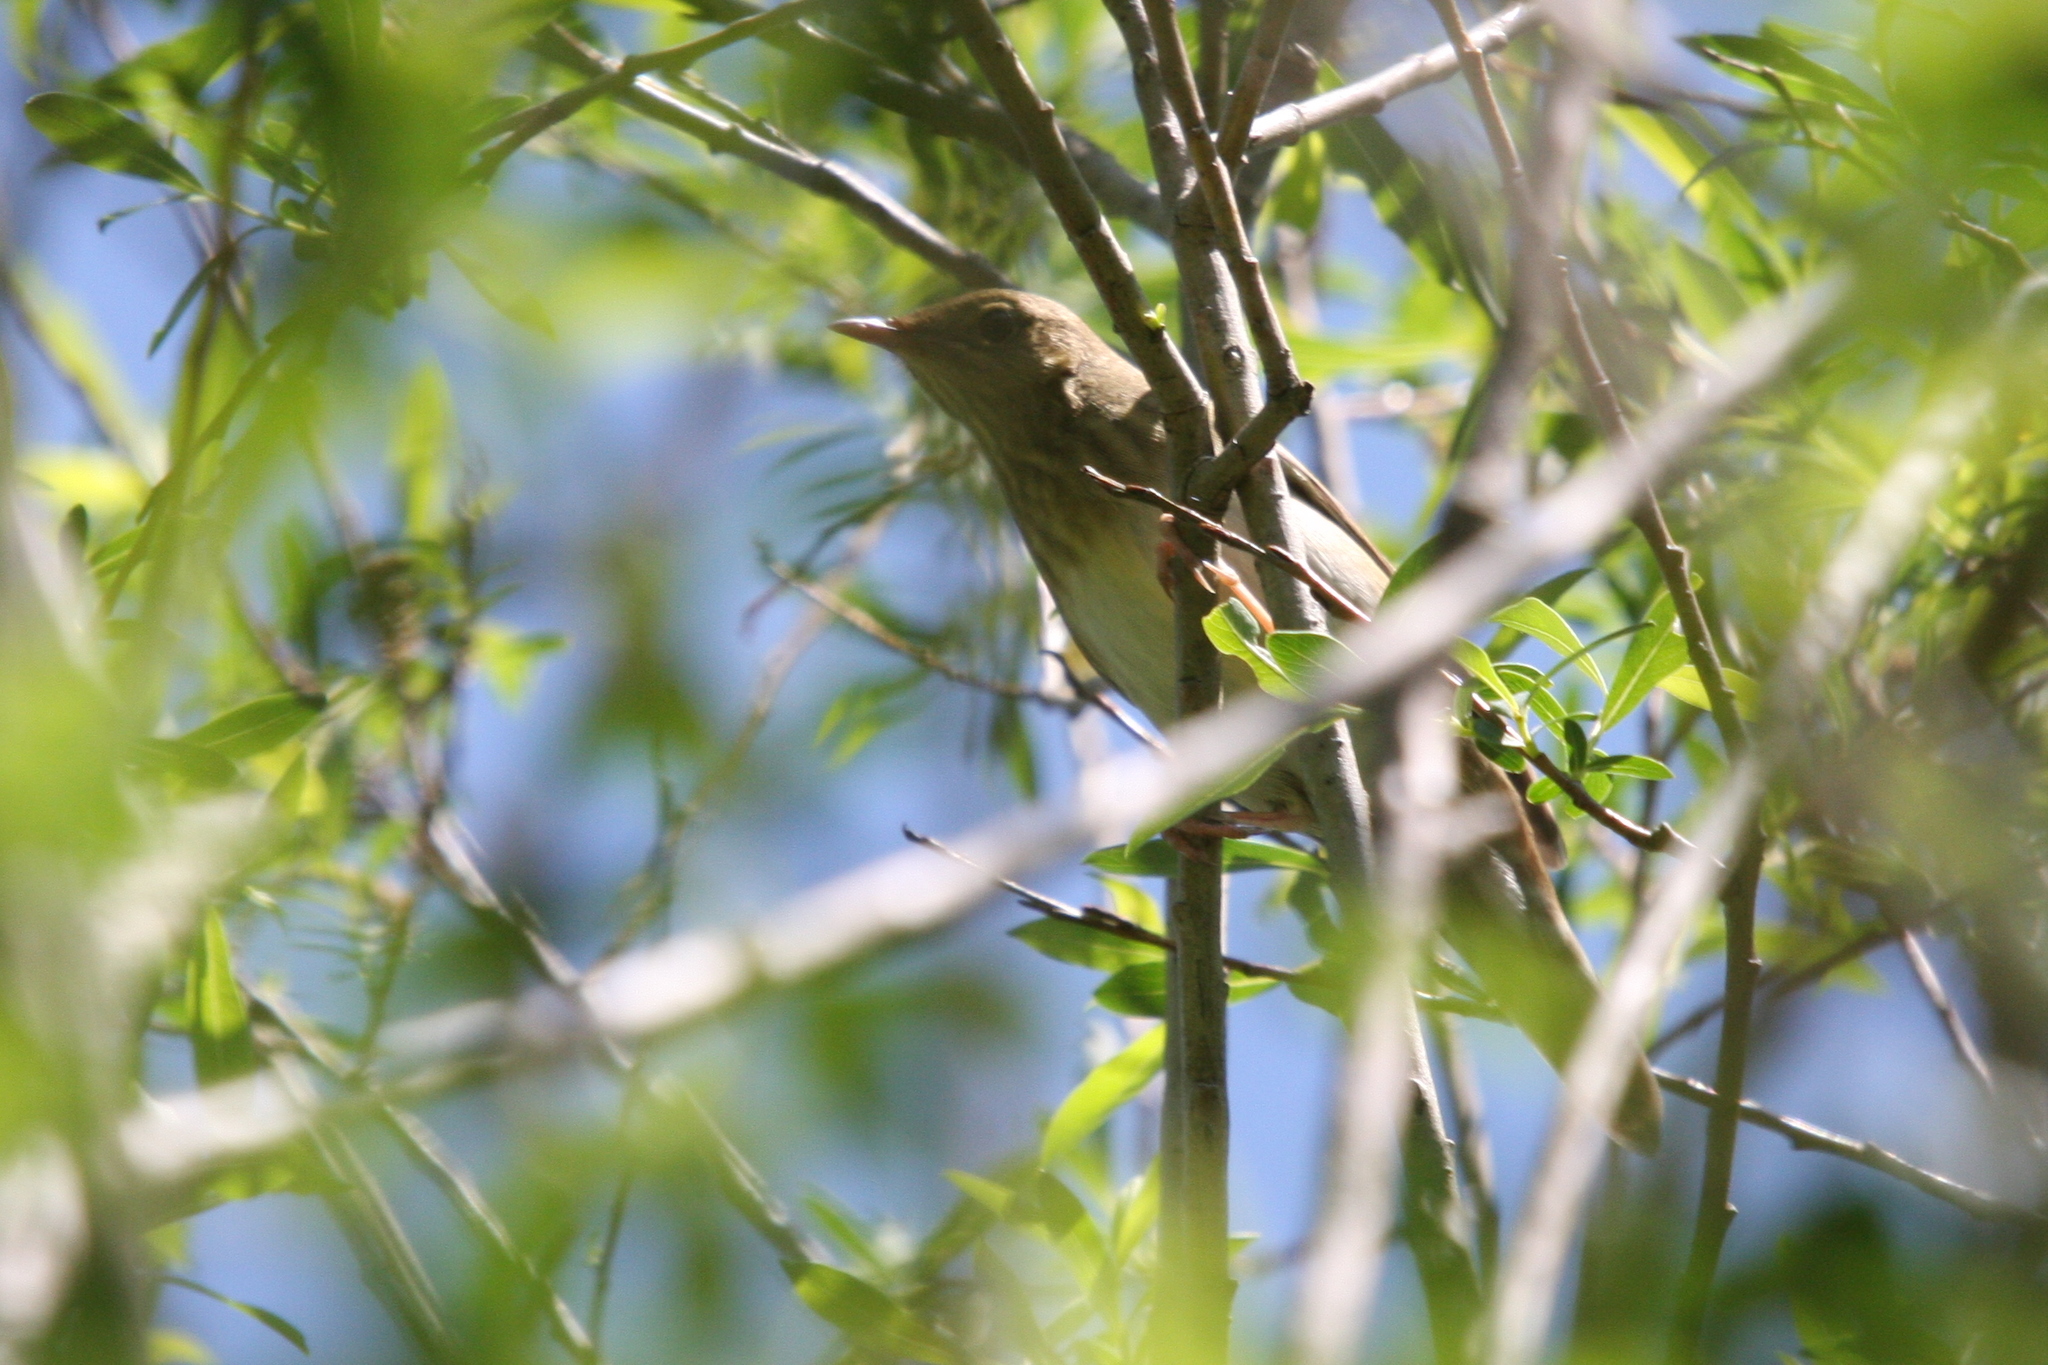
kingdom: Animalia
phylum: Chordata
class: Aves
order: Passeriformes
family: Locustellidae
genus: Locustella
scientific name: Locustella fluviatilis
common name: River warbler
